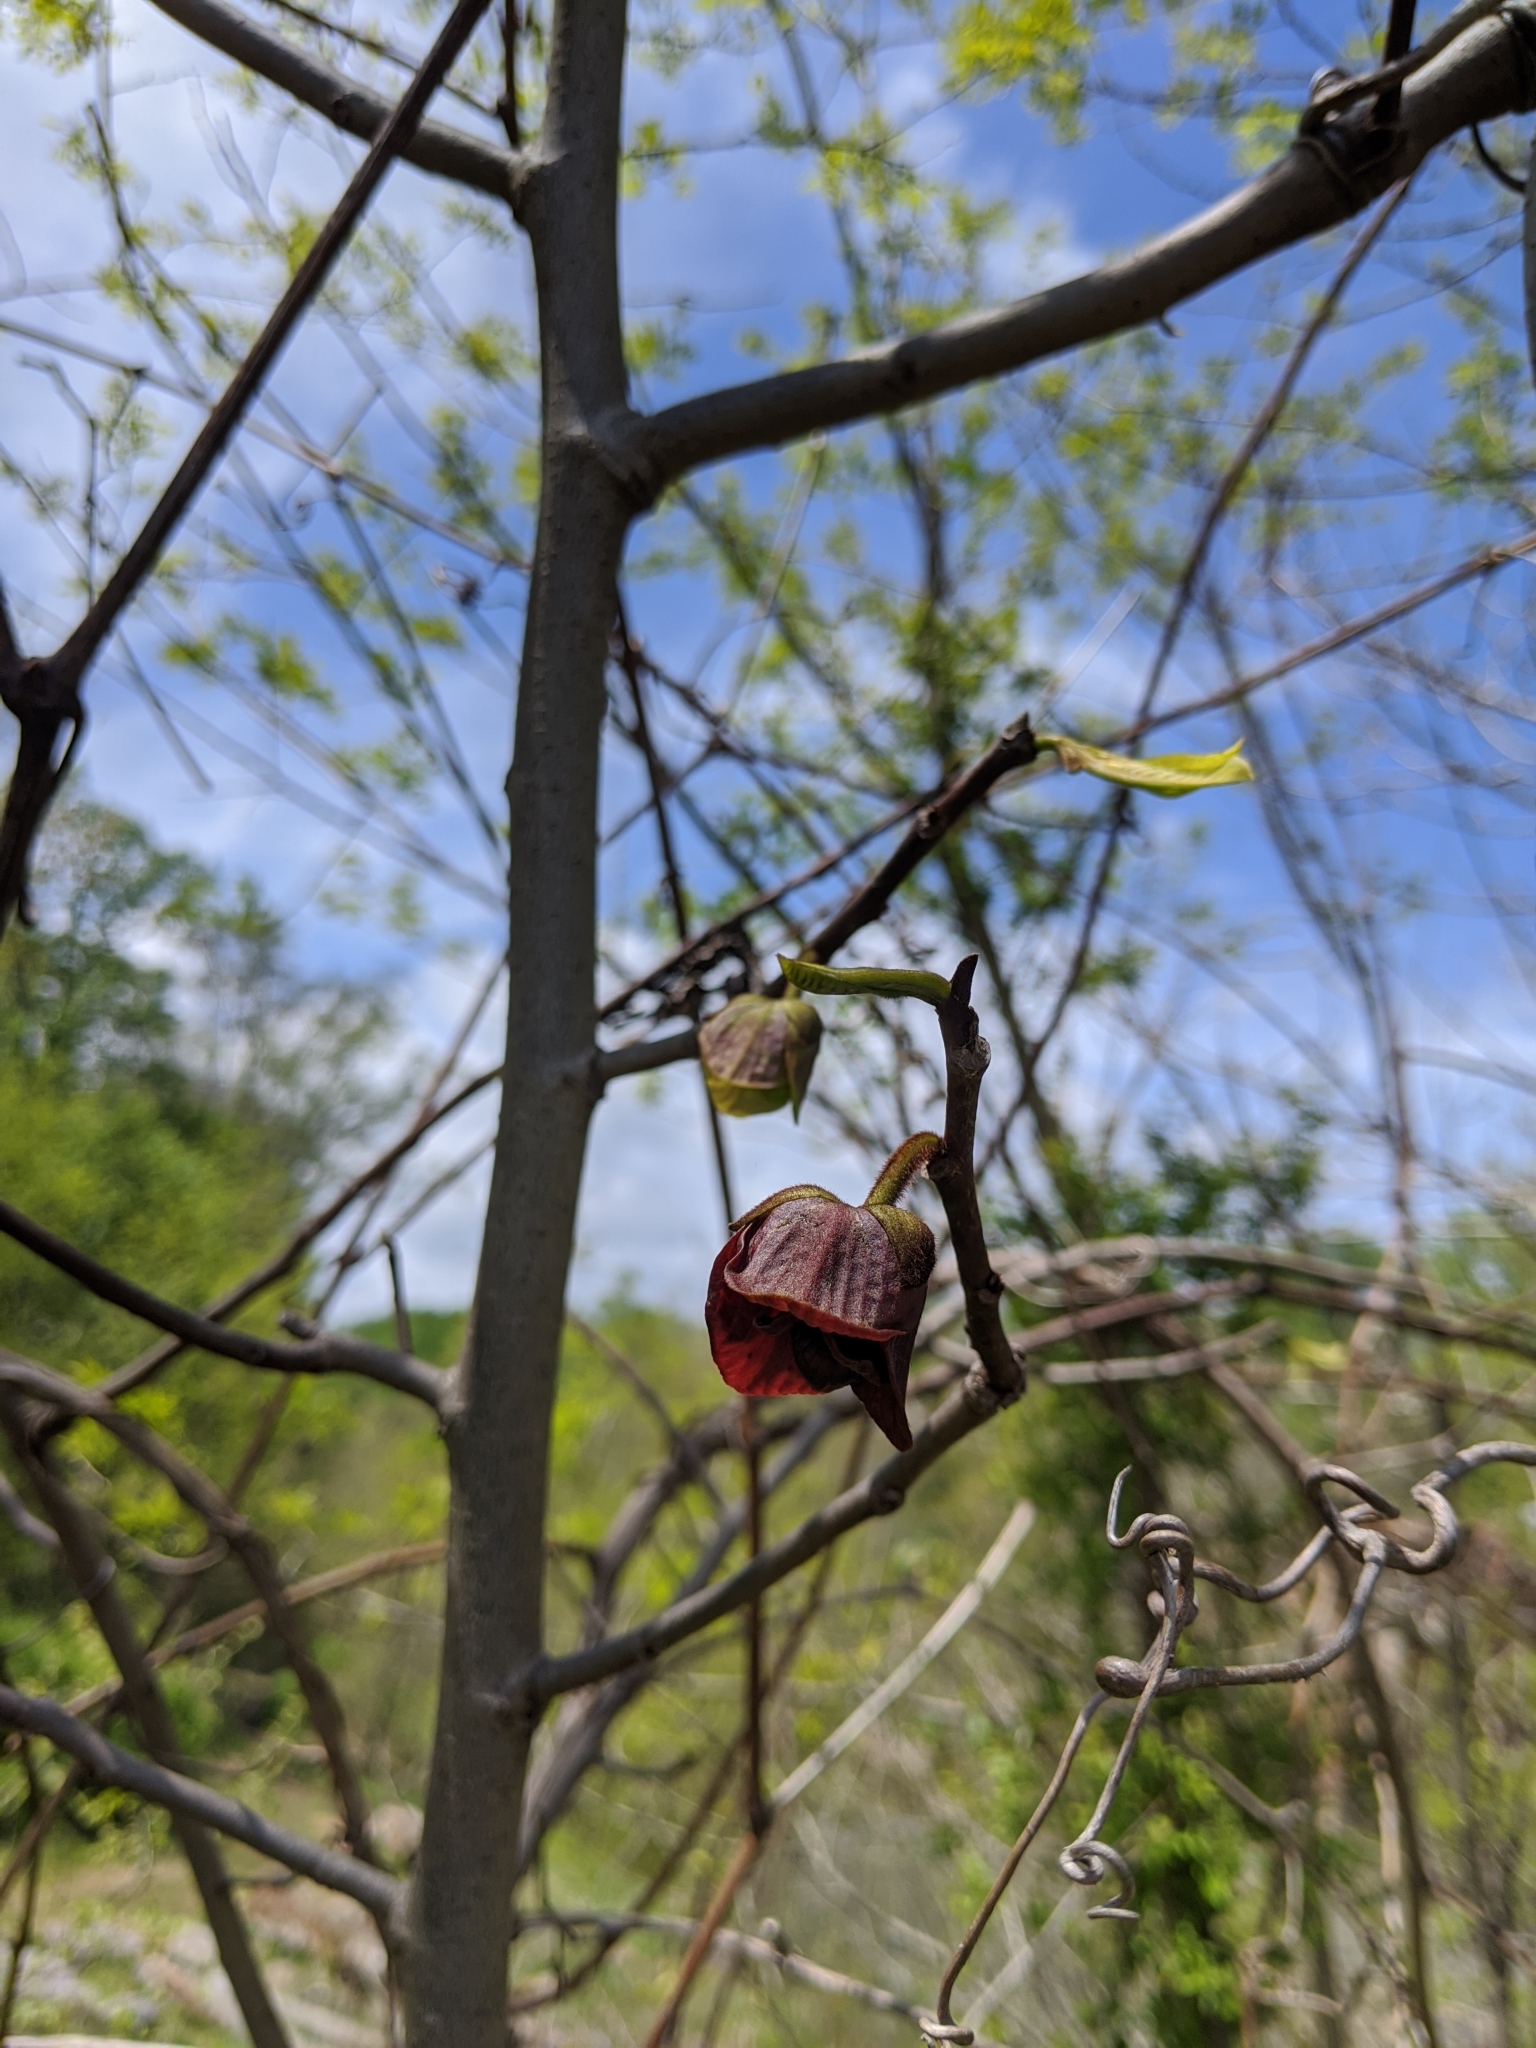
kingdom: Plantae
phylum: Tracheophyta
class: Magnoliopsida
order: Magnoliales
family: Annonaceae
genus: Asimina
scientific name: Asimina triloba
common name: Dog-banana
